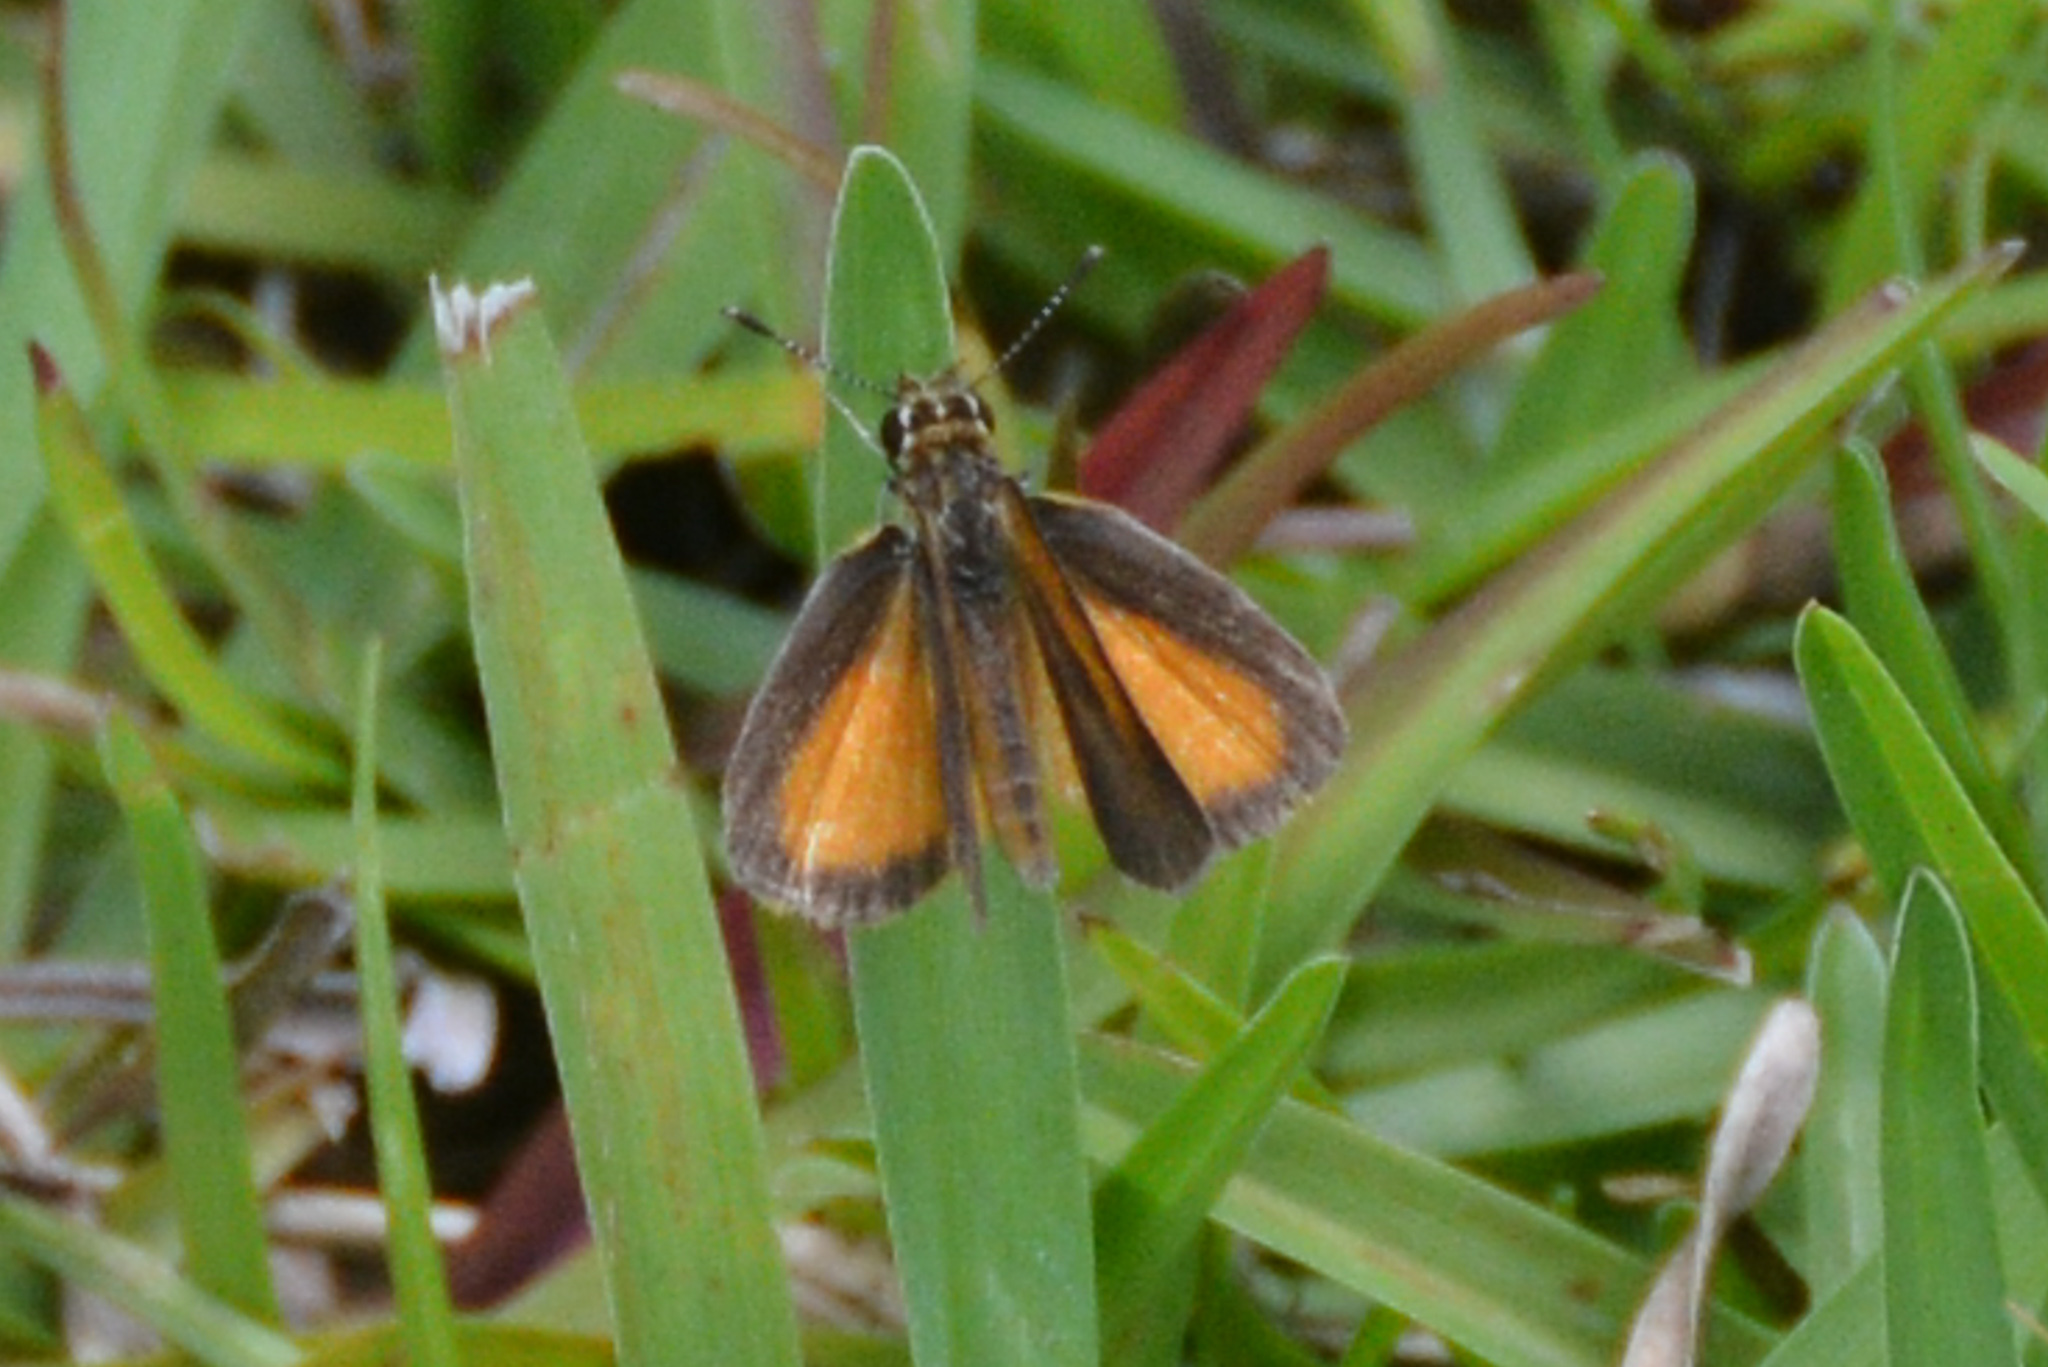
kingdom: Animalia
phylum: Arthropoda
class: Insecta
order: Lepidoptera
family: Hesperiidae
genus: Ancyloxypha
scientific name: Ancyloxypha numitor
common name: Least skipper
